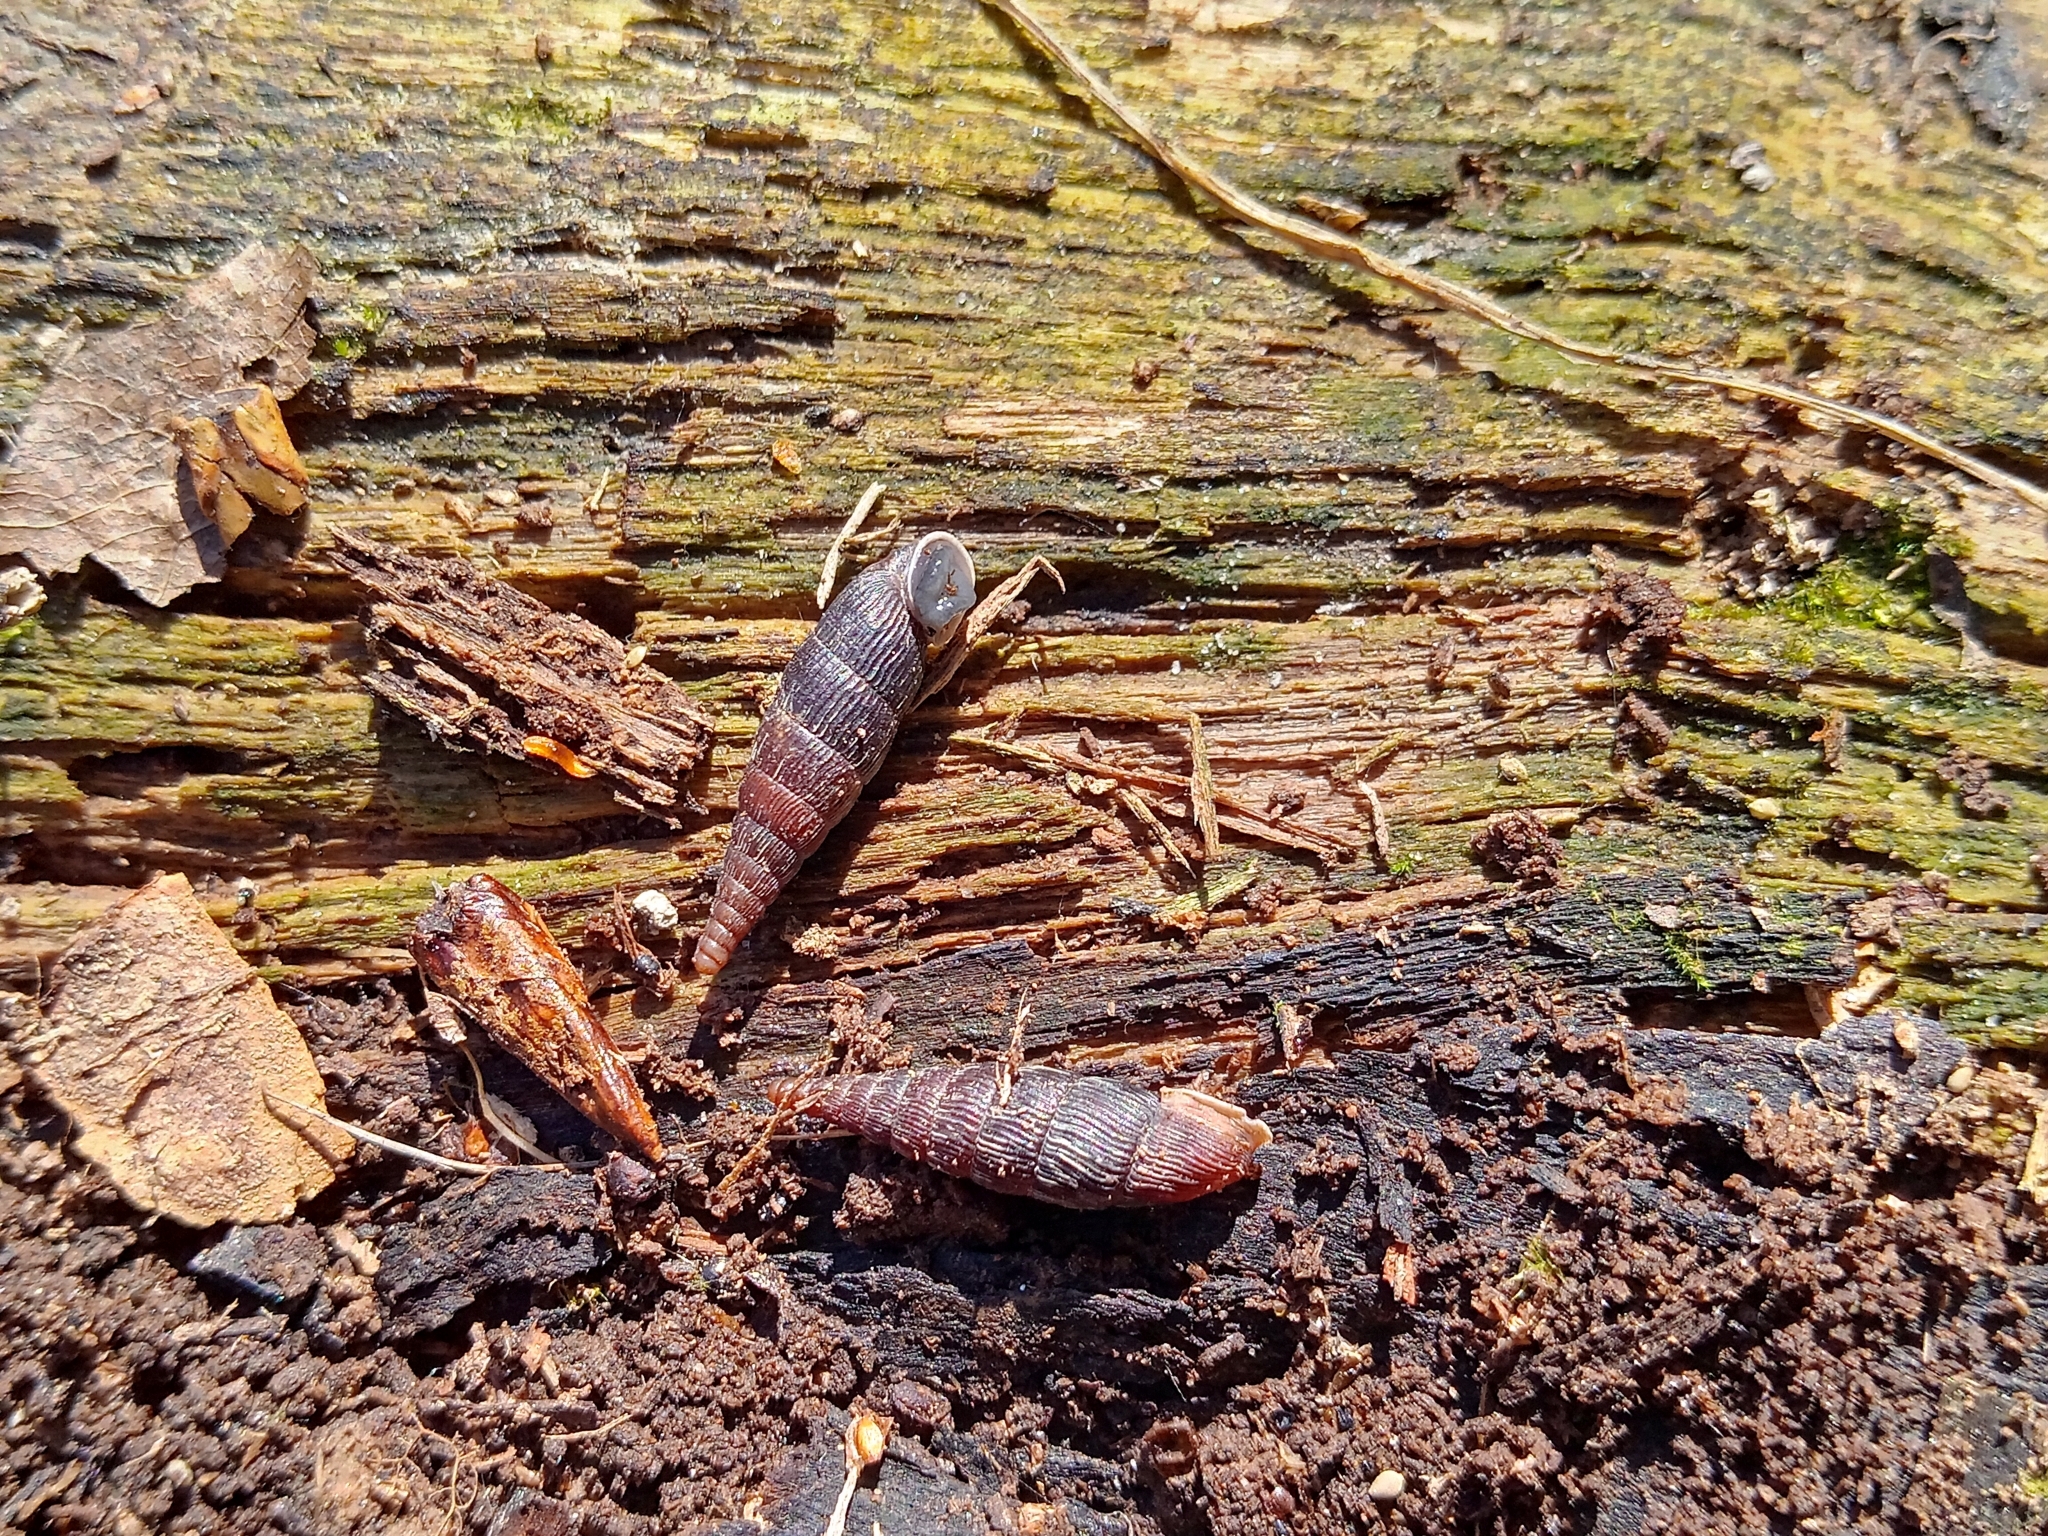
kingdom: Animalia
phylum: Mollusca
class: Gastropoda
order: Stylommatophora
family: Clausiliidae
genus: Macrogastra
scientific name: Macrogastra ventricosa
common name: Ventricose door snail
